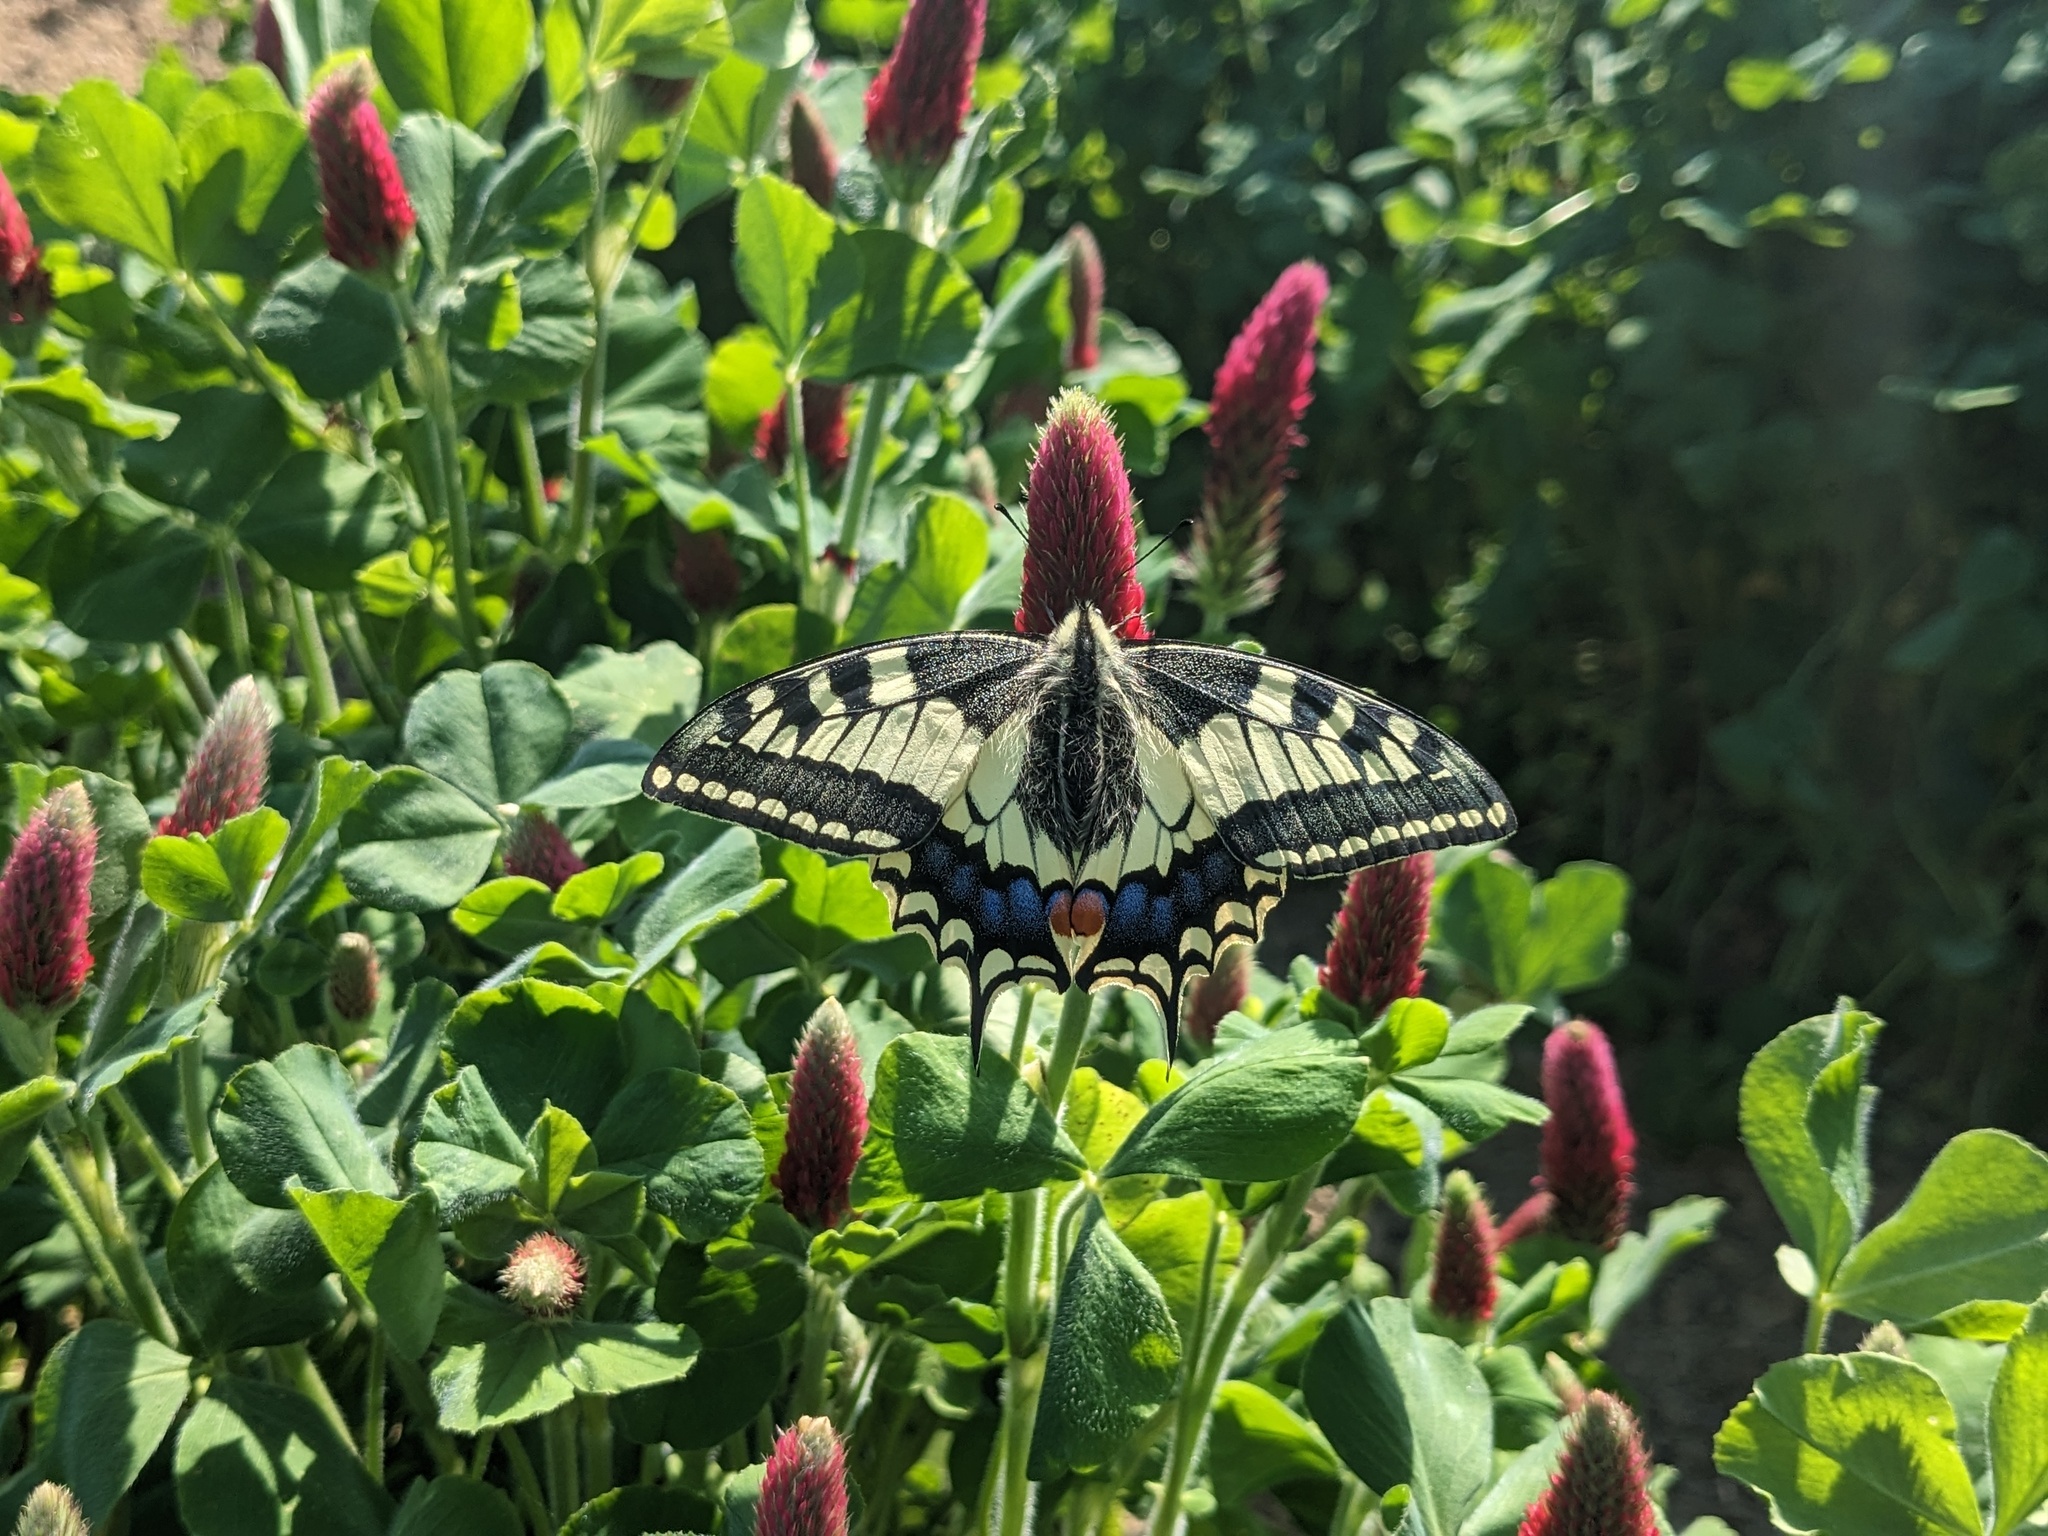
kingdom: Animalia
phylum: Arthropoda
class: Insecta
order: Lepidoptera
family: Papilionidae
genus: Papilio
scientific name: Papilio machaon
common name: Swallowtail
